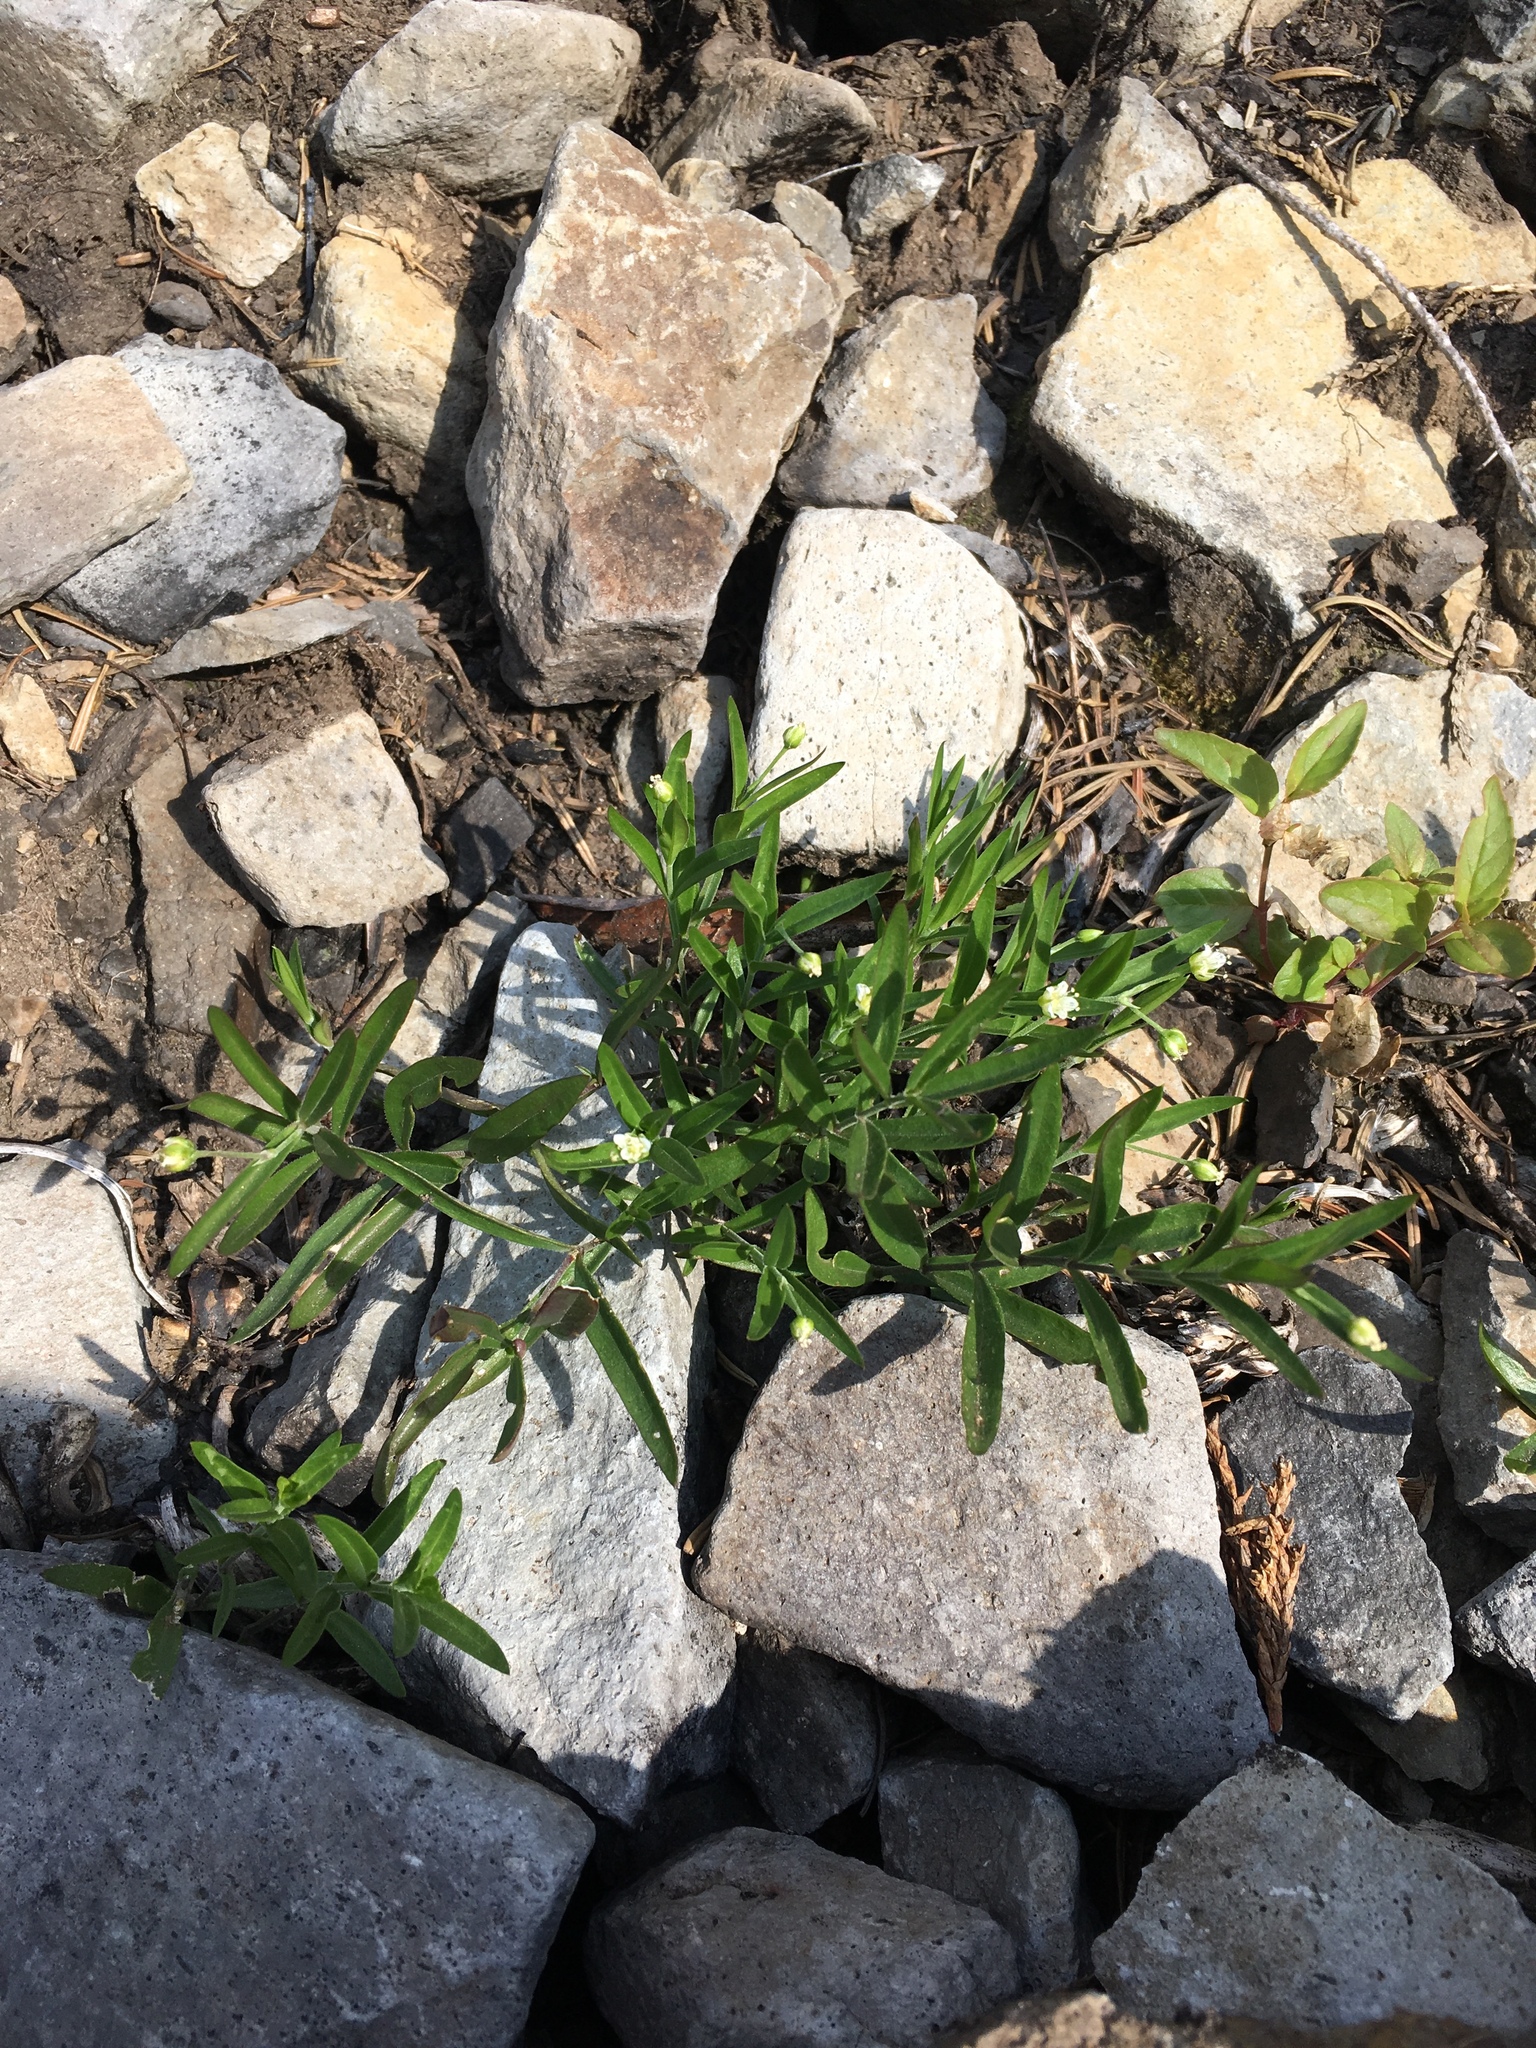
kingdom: Plantae
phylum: Tracheophyta
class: Magnoliopsida
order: Caryophyllales
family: Caryophyllaceae
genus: Moehringia
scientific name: Moehringia macrophylla
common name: Big-leaf sandwort
